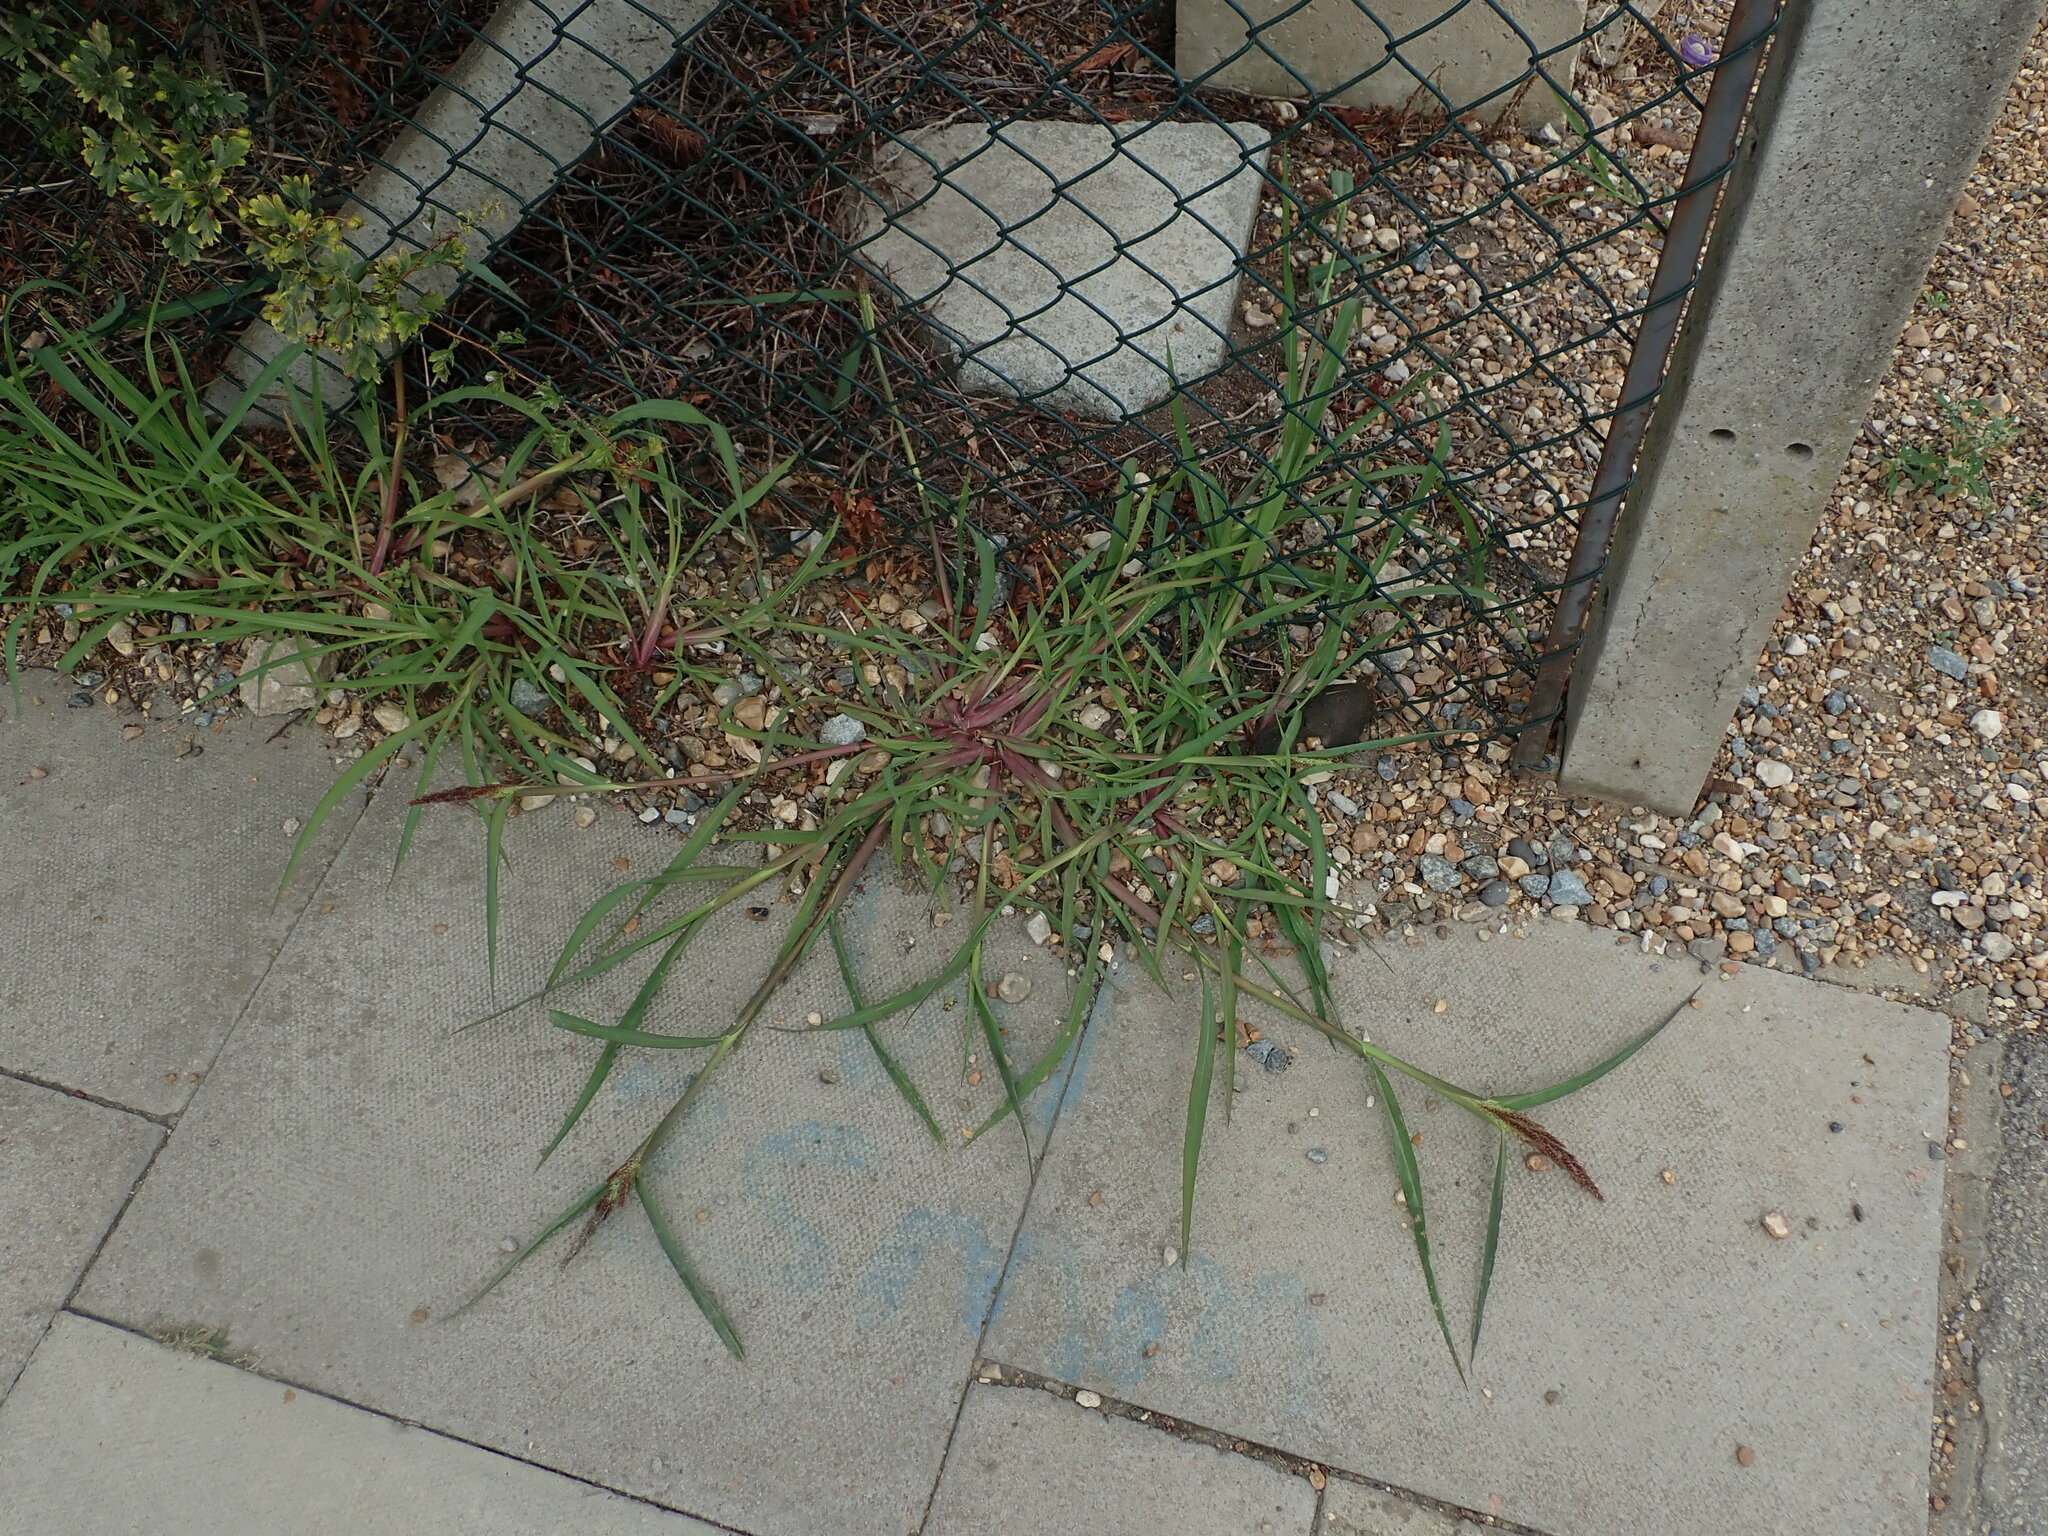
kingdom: Plantae
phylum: Tracheophyta
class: Liliopsida
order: Poales
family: Poaceae
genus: Echinochloa
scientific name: Echinochloa crus-galli
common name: Cockspur
